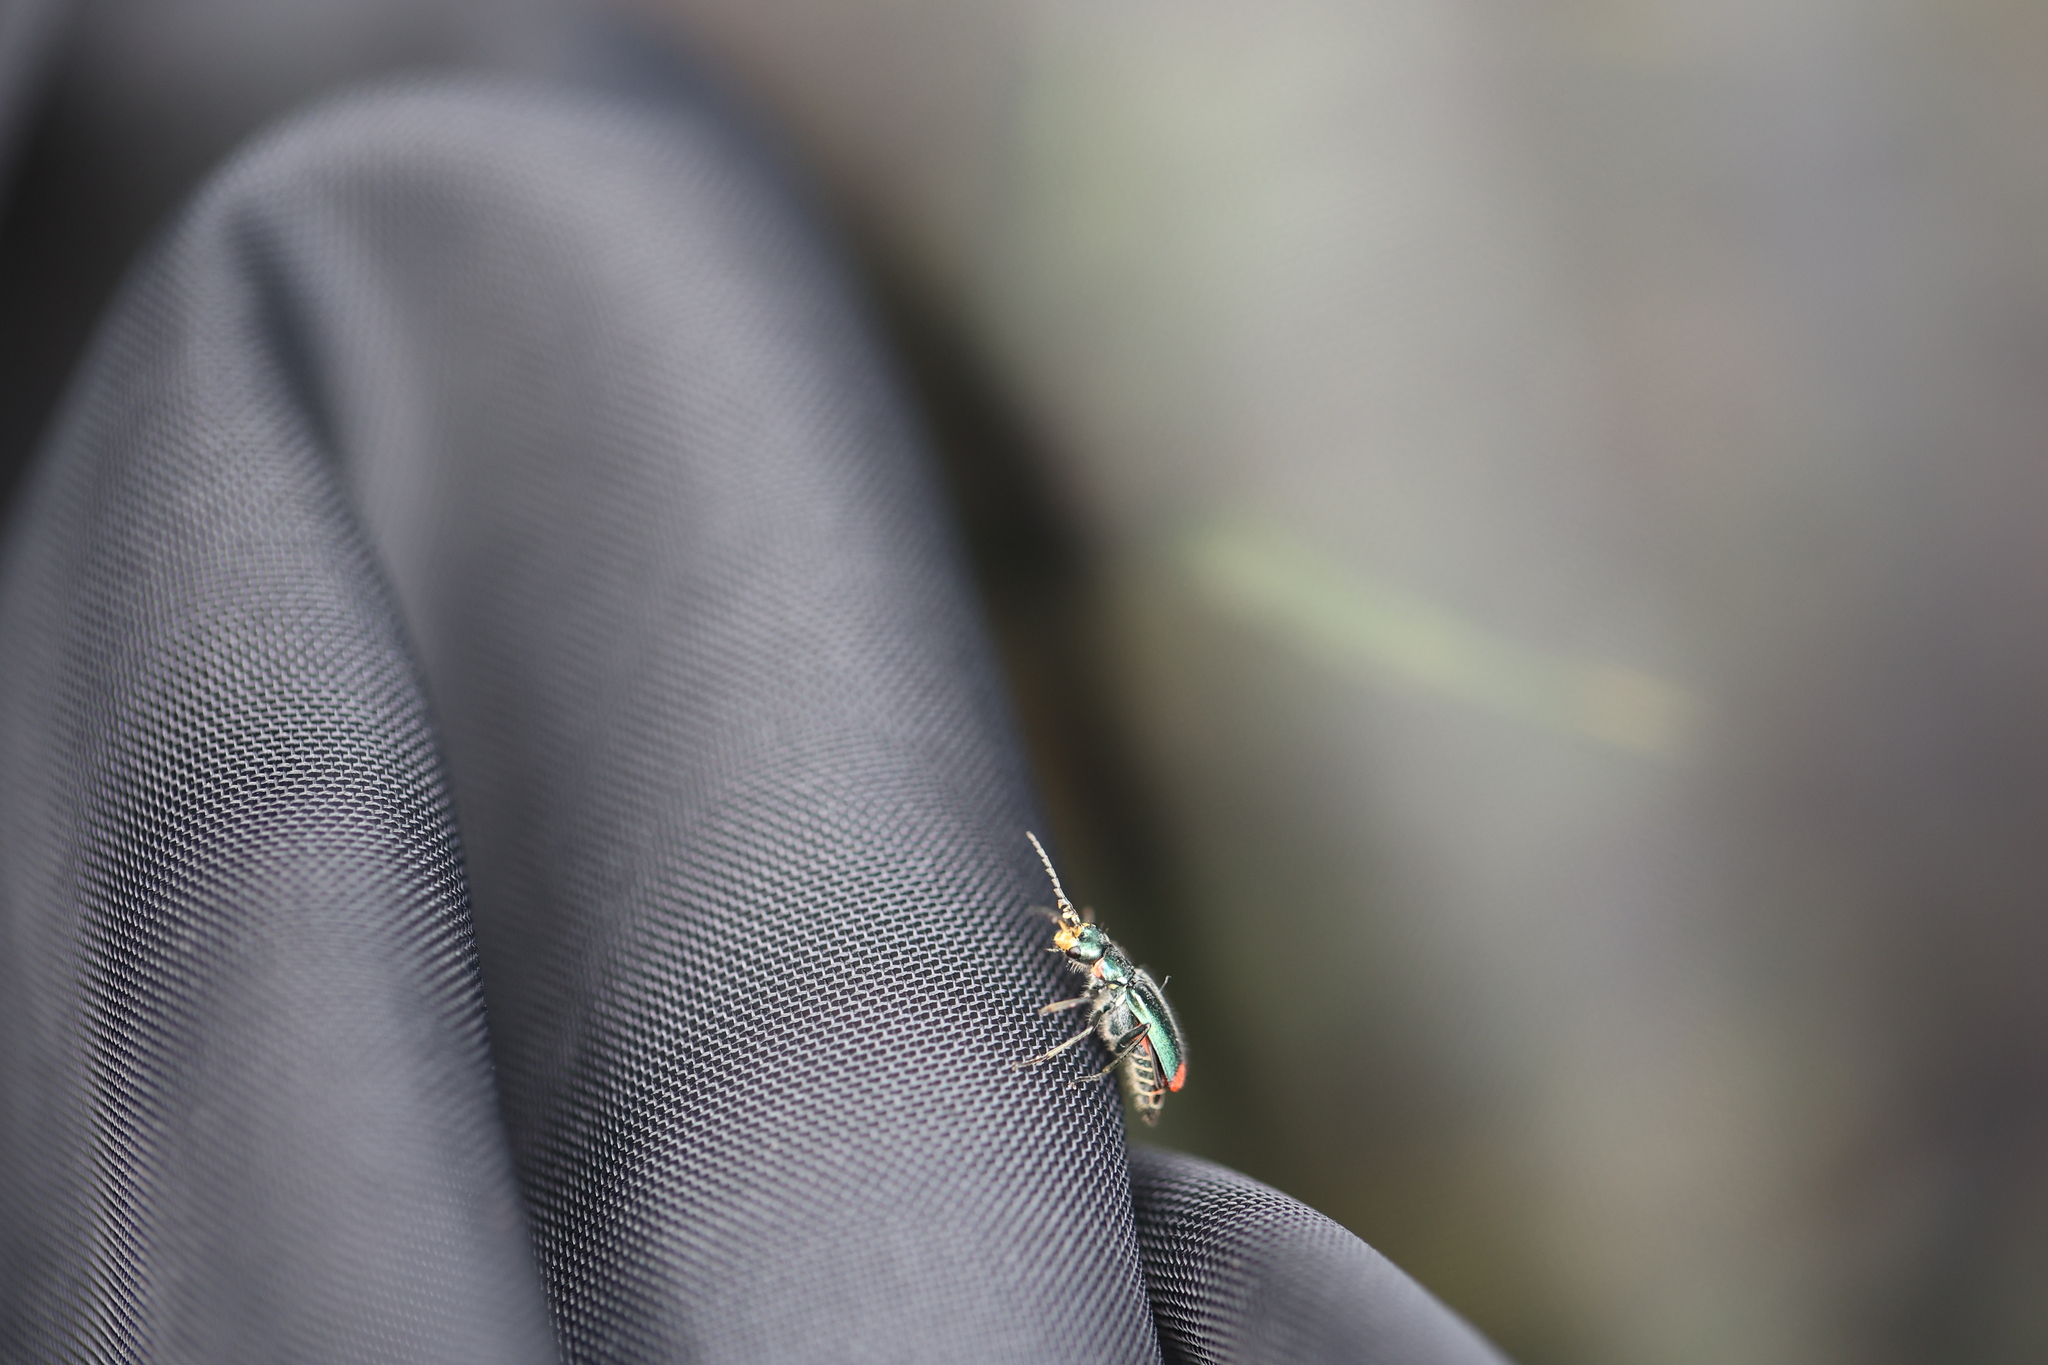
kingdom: Animalia
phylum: Arthropoda
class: Insecta
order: Coleoptera
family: Melyridae
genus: Malachius
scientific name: Malachius bipustulatus
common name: Malachite beetle
